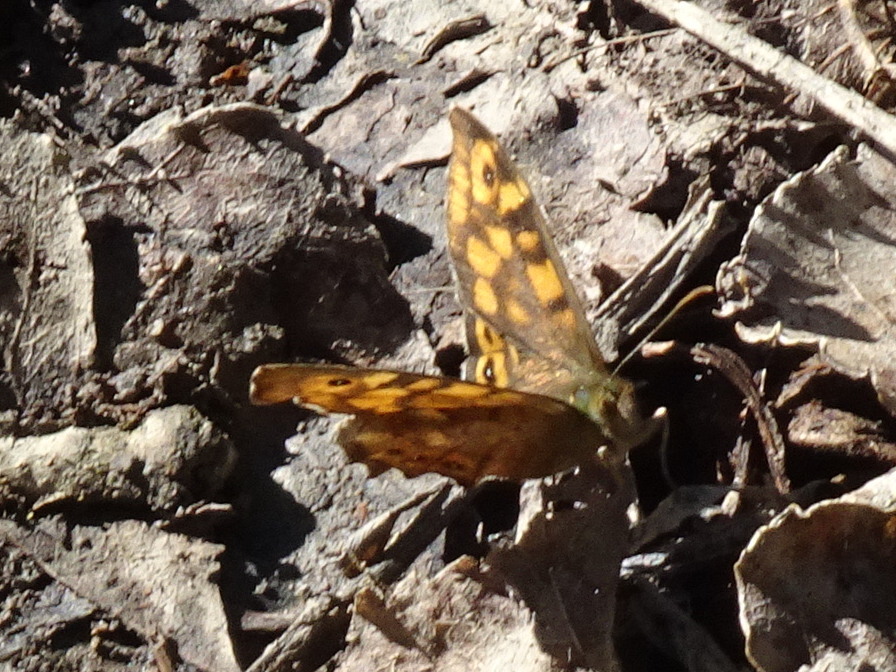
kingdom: Animalia
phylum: Arthropoda
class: Insecta
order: Lepidoptera
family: Nymphalidae
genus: Pararge
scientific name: Pararge aegeria
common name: Speckled wood
